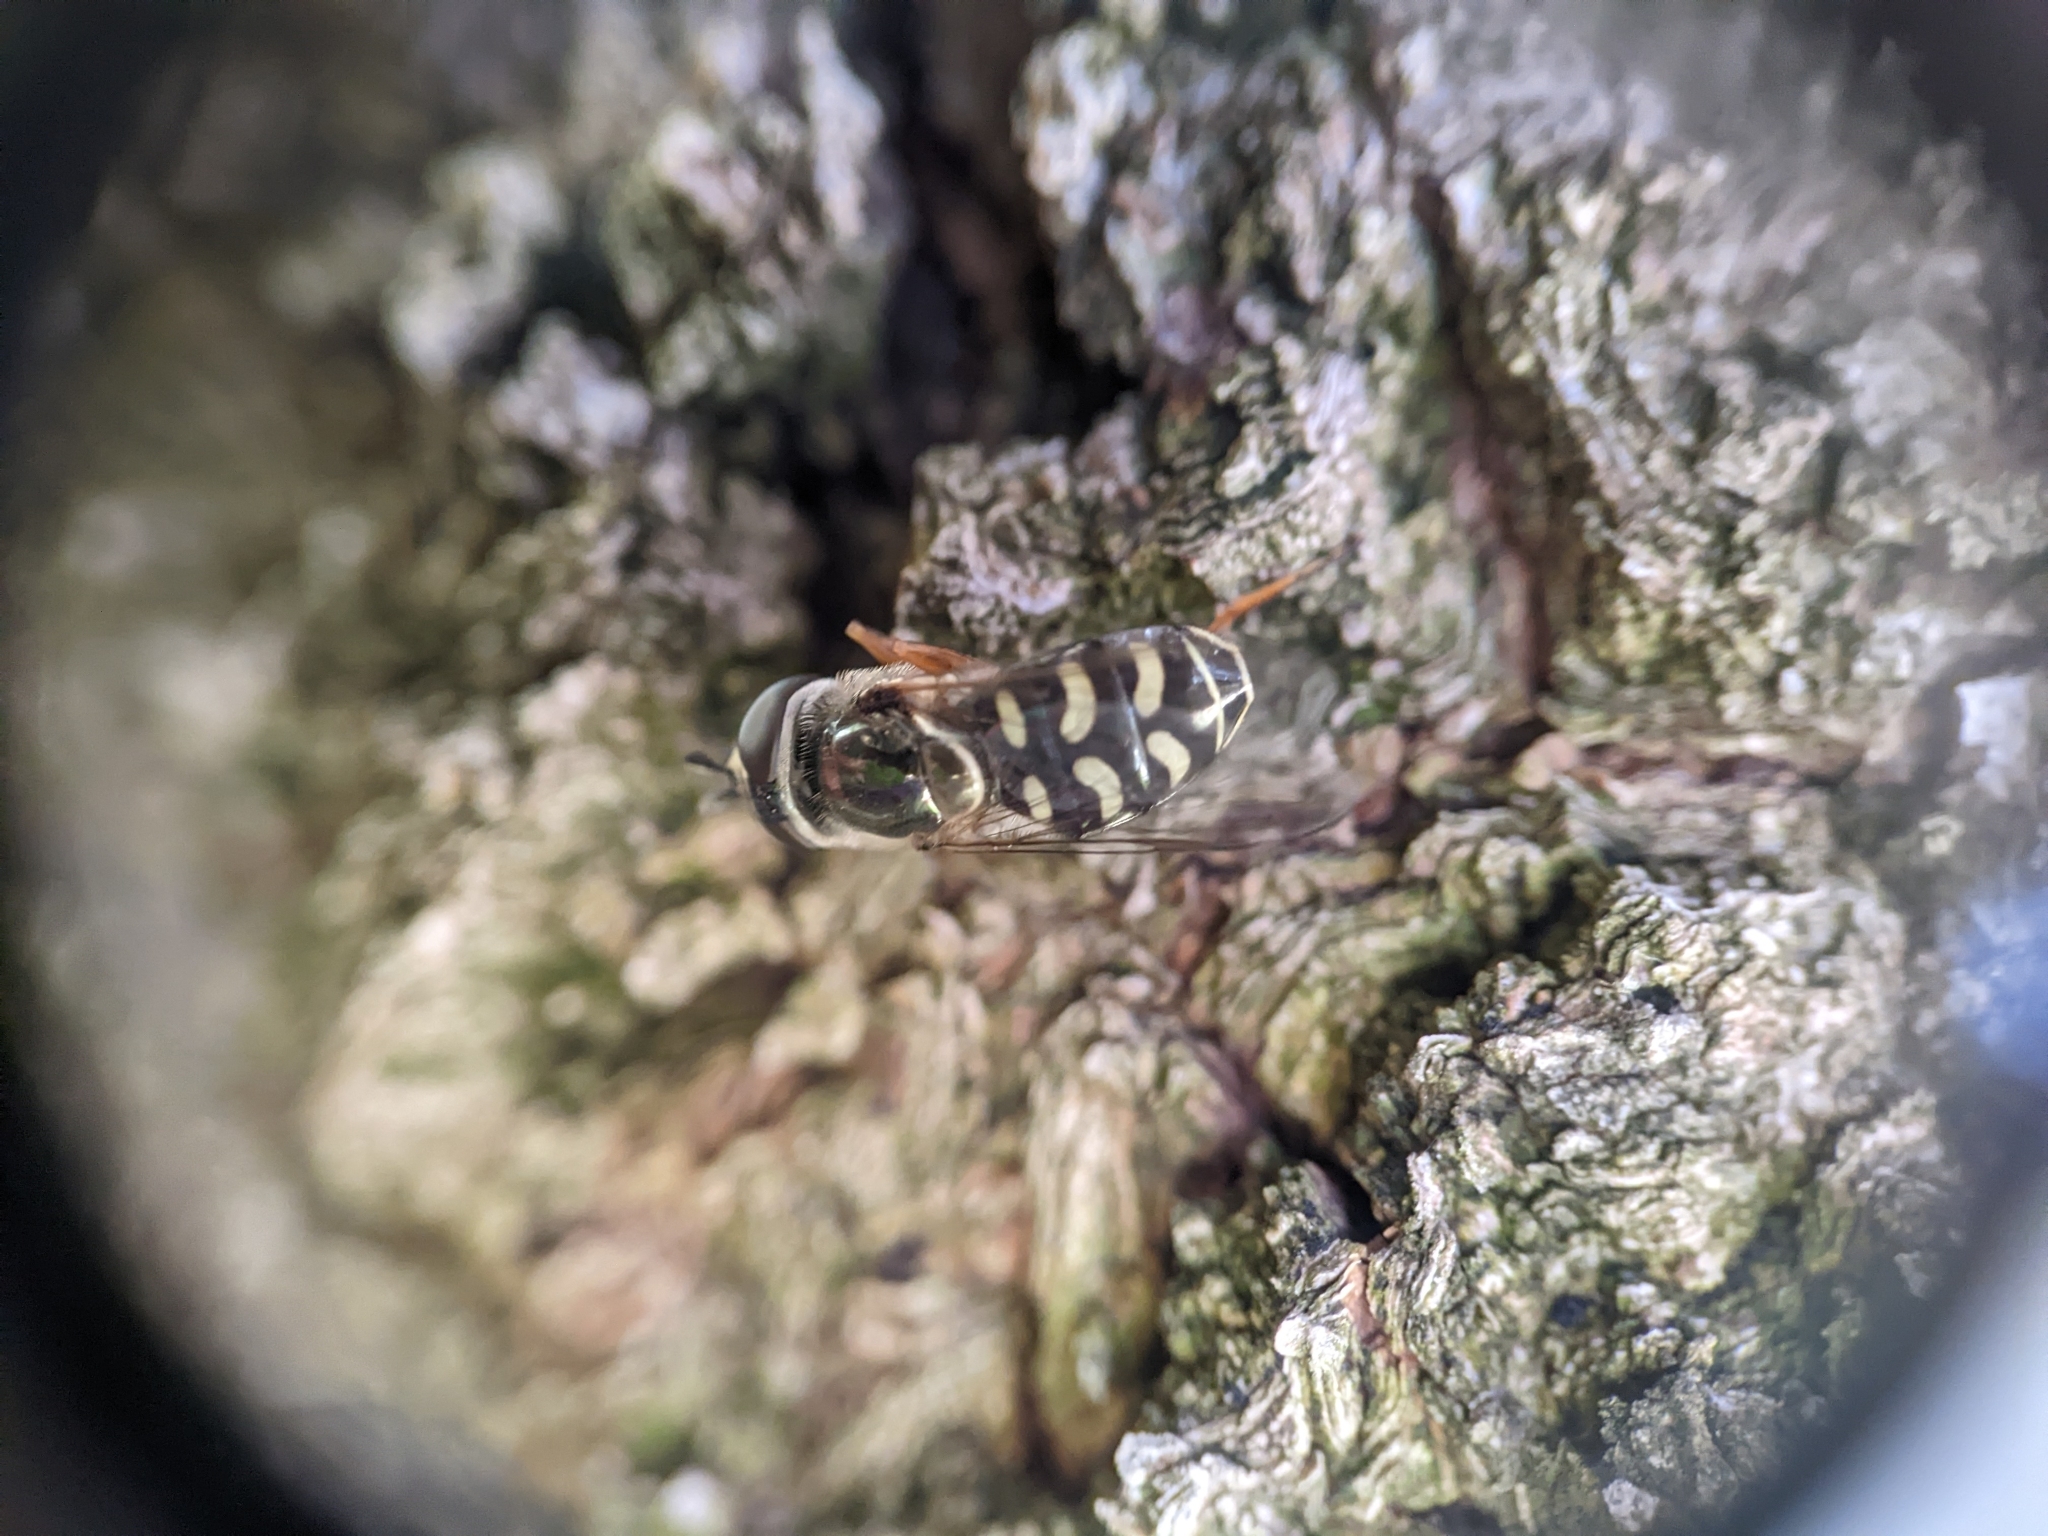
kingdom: Animalia
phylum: Arthropoda
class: Insecta
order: Diptera
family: Syrphidae
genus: Eupeodes
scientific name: Eupeodes volucris
